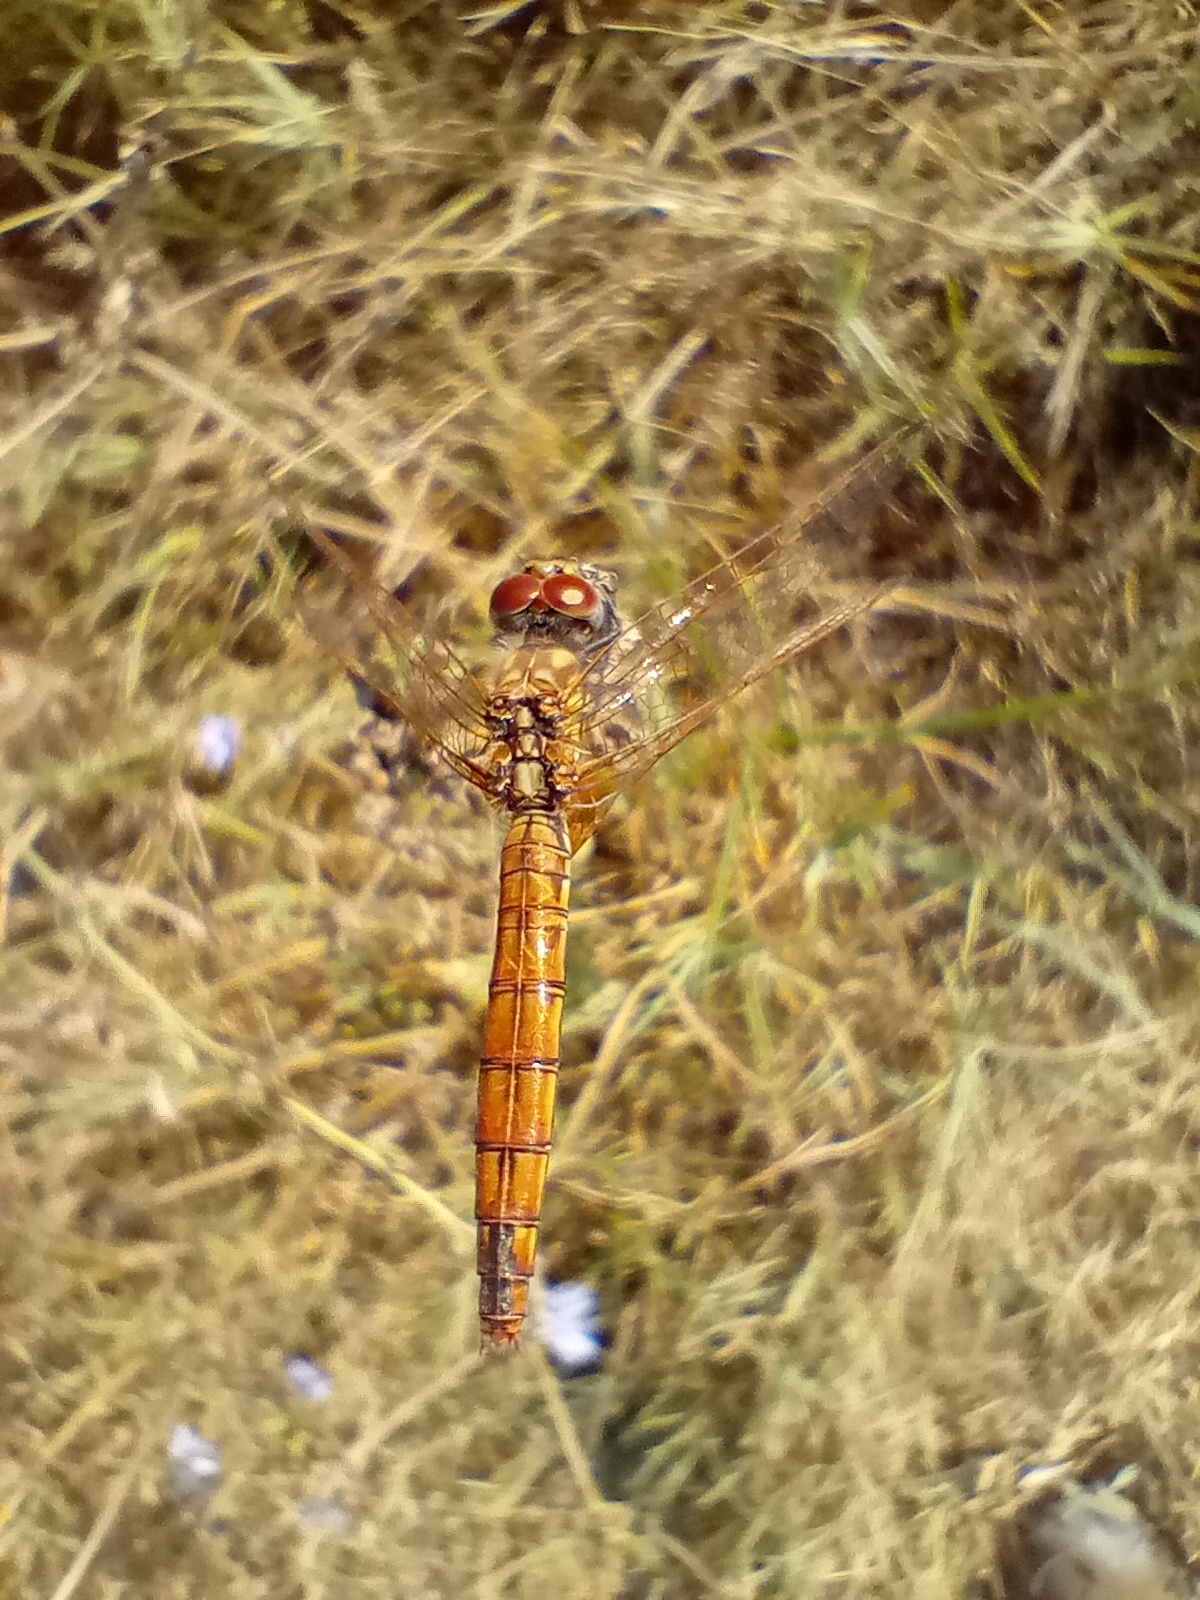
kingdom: Animalia
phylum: Arthropoda
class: Insecta
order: Odonata
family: Libellulidae
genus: Trithemis
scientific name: Trithemis annulata
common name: Violet dropwing
